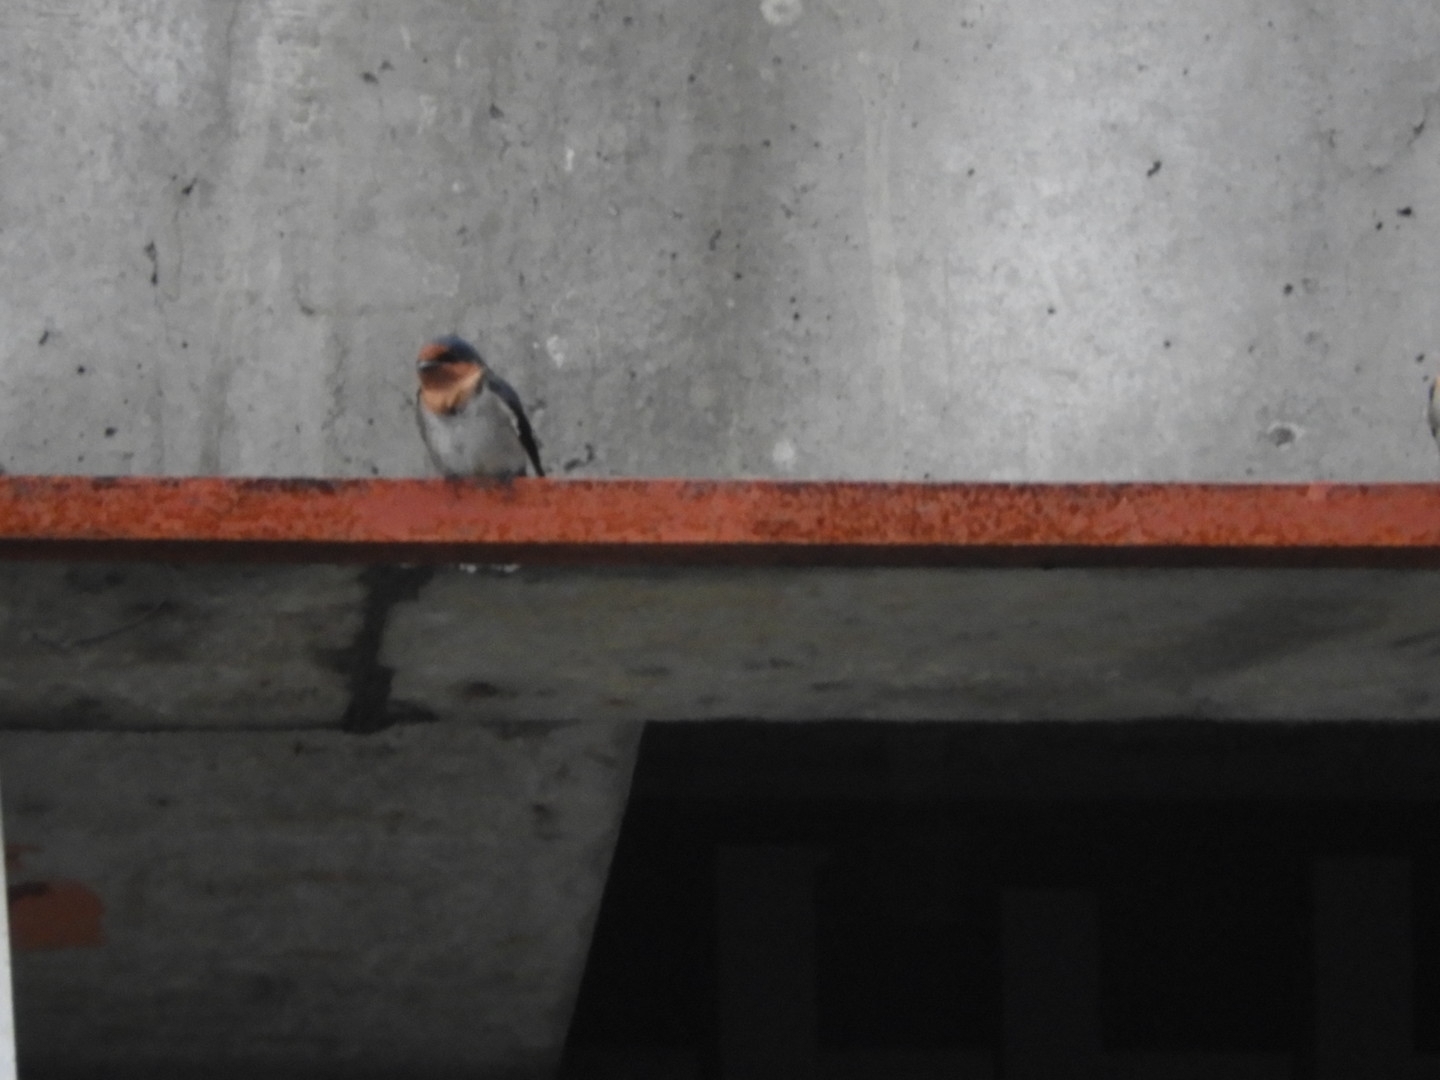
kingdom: Animalia
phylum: Chordata
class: Aves
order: Passeriformes
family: Hirundinidae
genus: Hirundo
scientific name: Hirundo tahitica
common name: Pacific swallow
